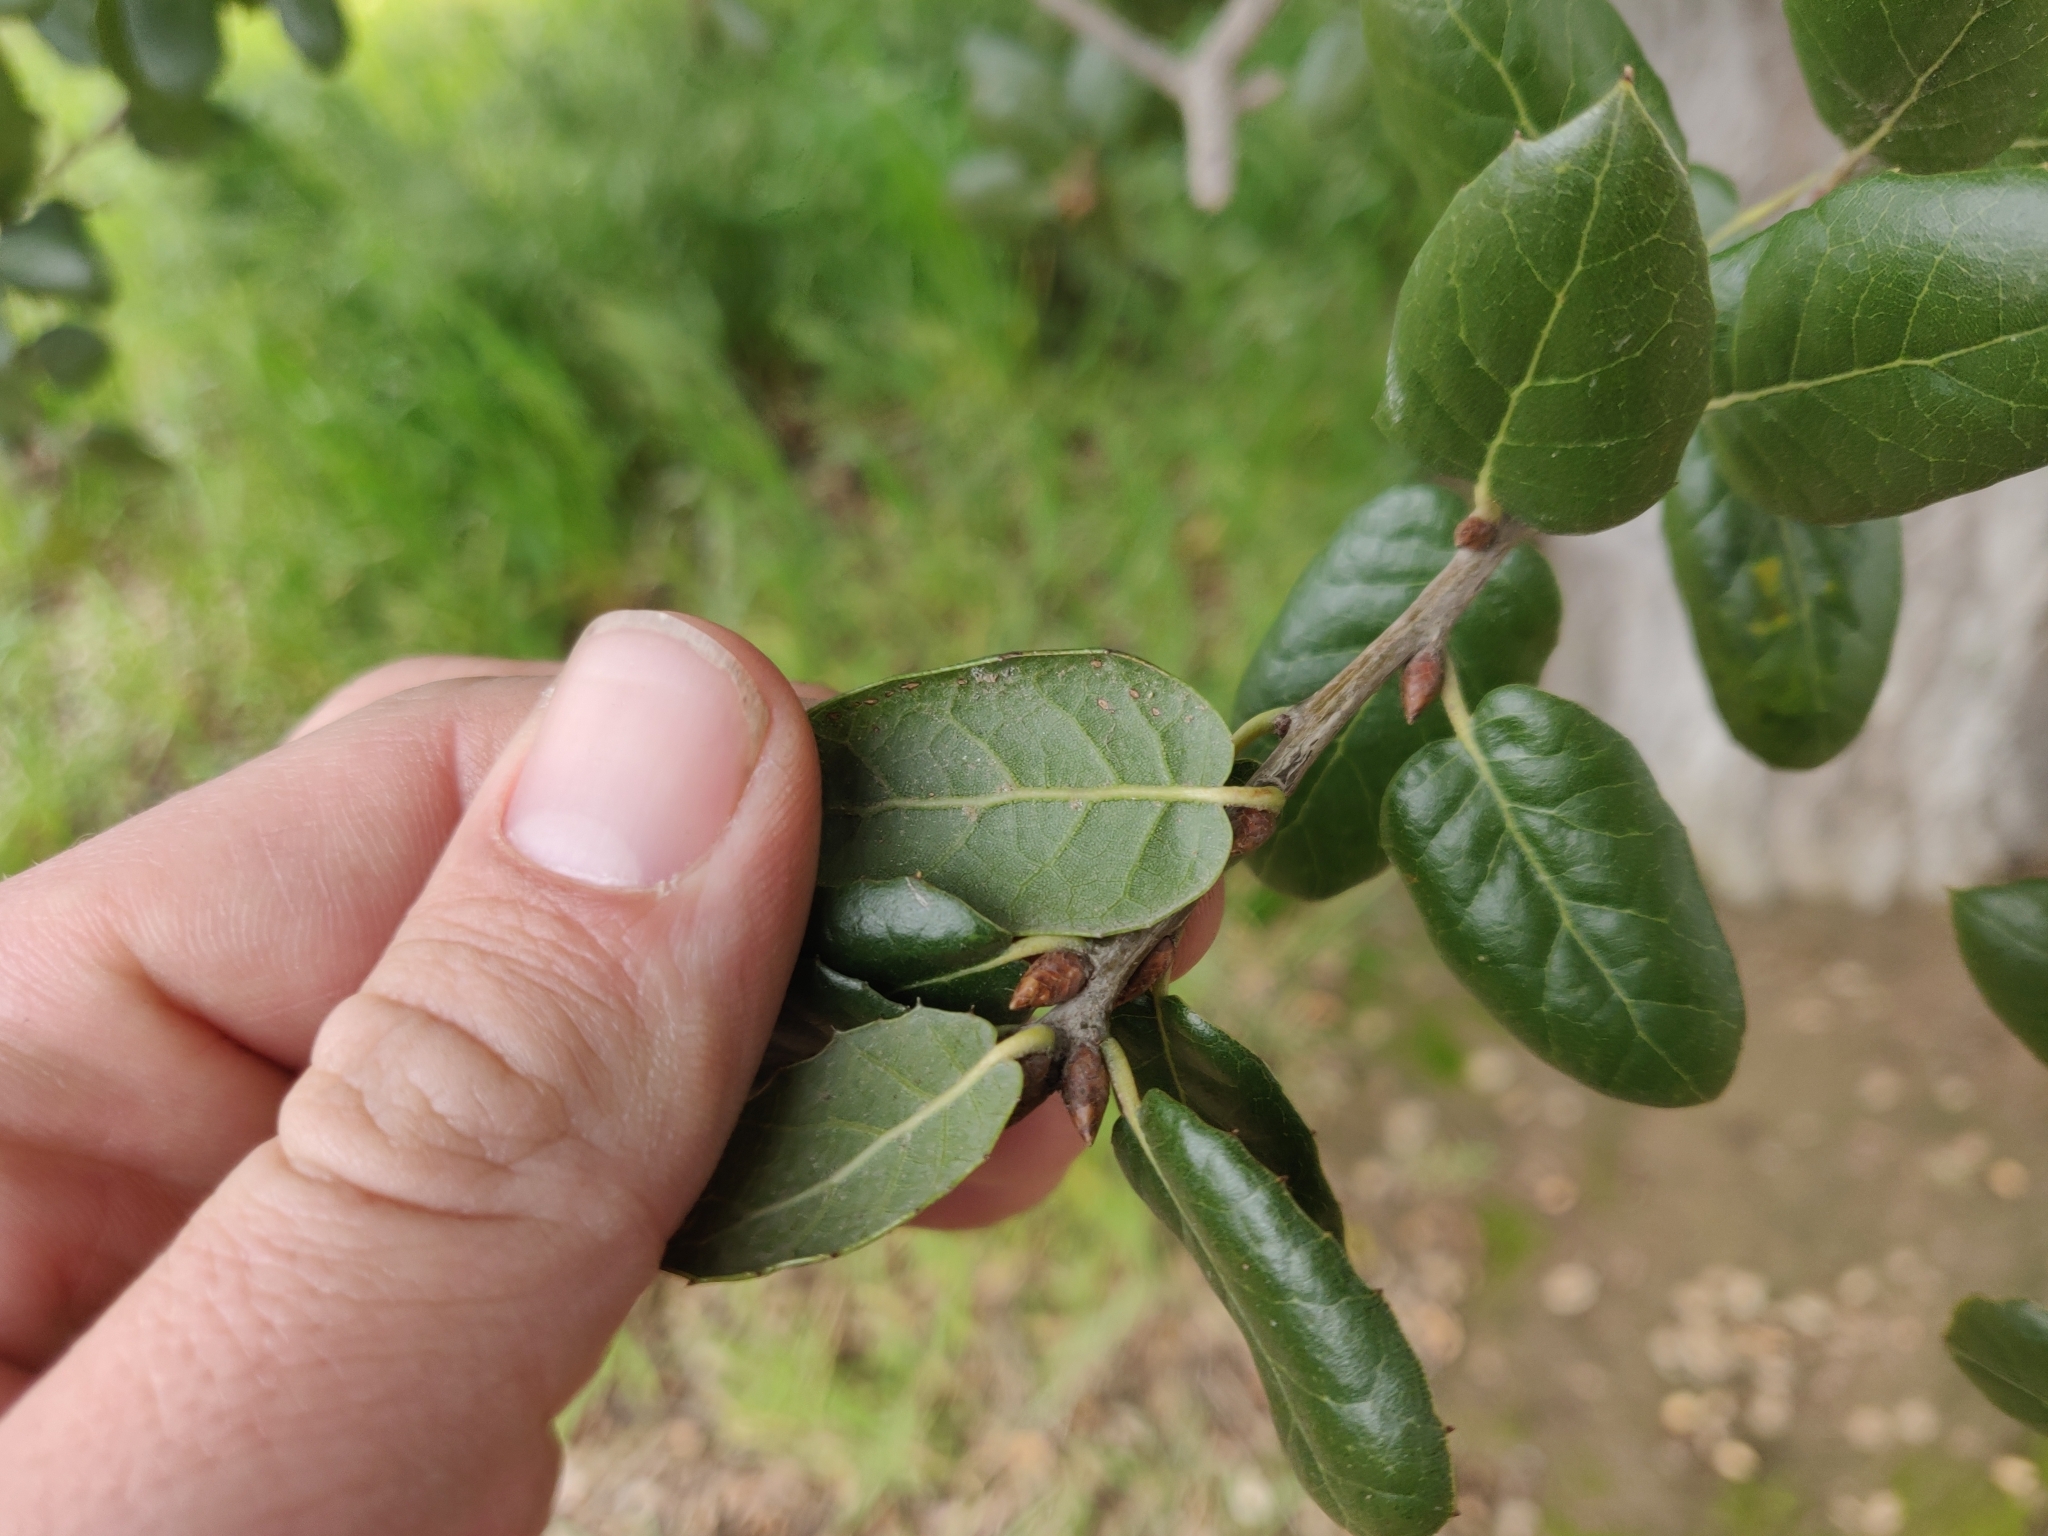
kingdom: Plantae
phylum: Tracheophyta
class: Magnoliopsida
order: Fagales
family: Fagaceae
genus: Quercus
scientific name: Quercus agrifolia
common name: California live oak
